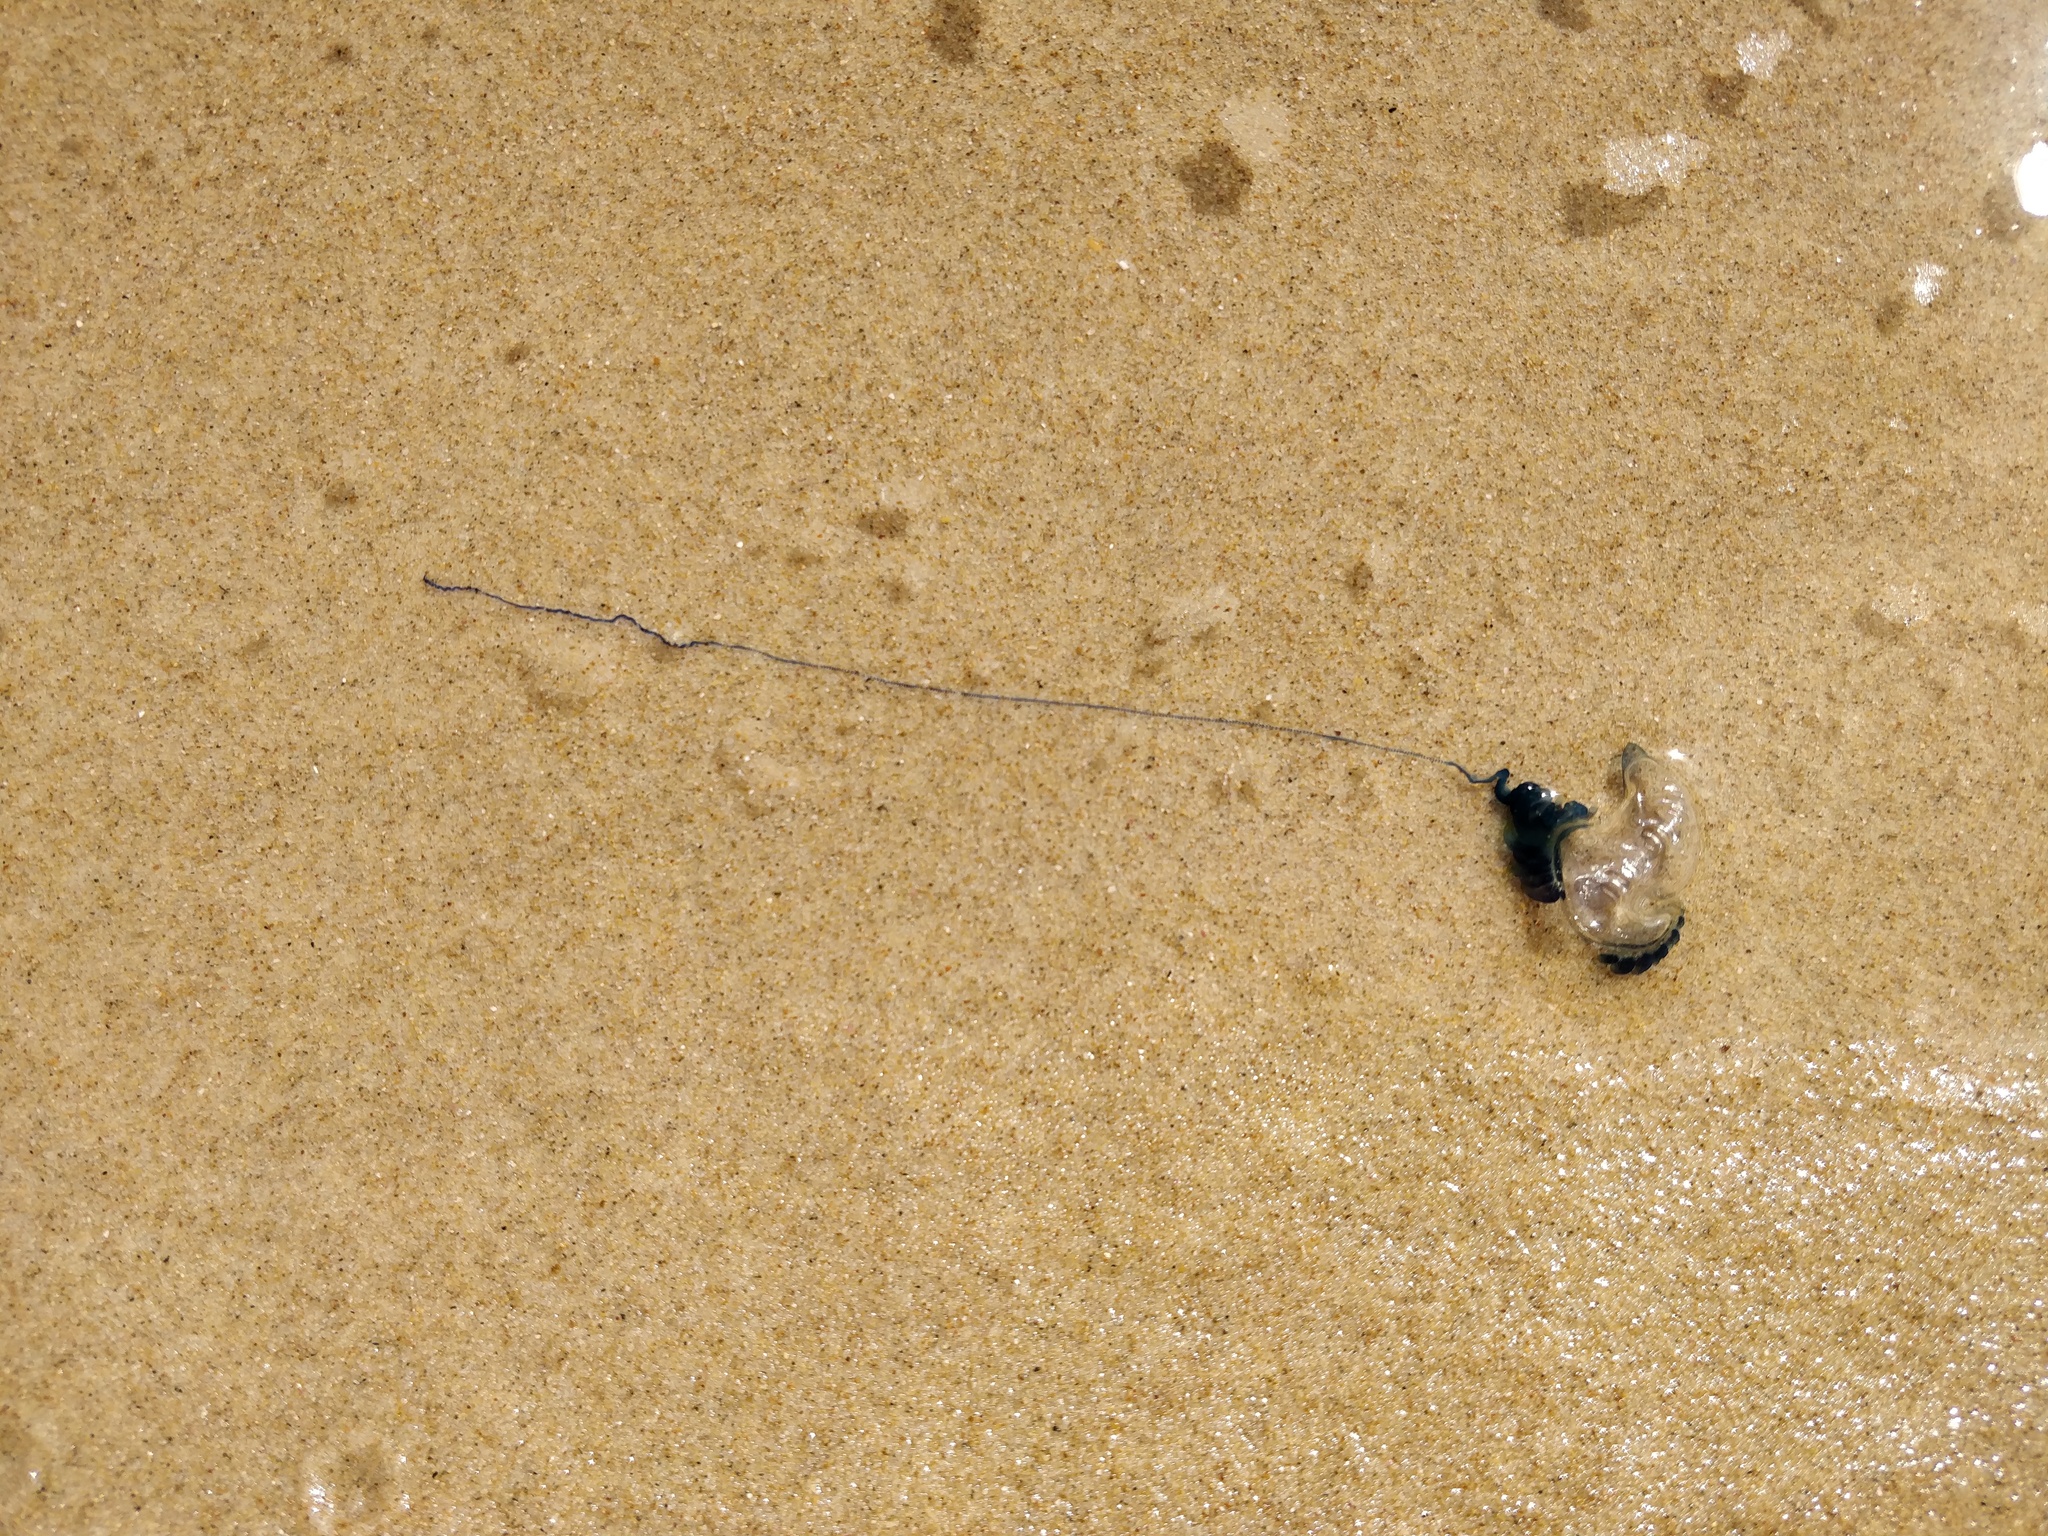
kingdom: Animalia
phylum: Cnidaria
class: Hydrozoa
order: Siphonophorae
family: Physaliidae
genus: Physalia
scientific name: Physalia physalis
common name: Portuguese man-of-war
